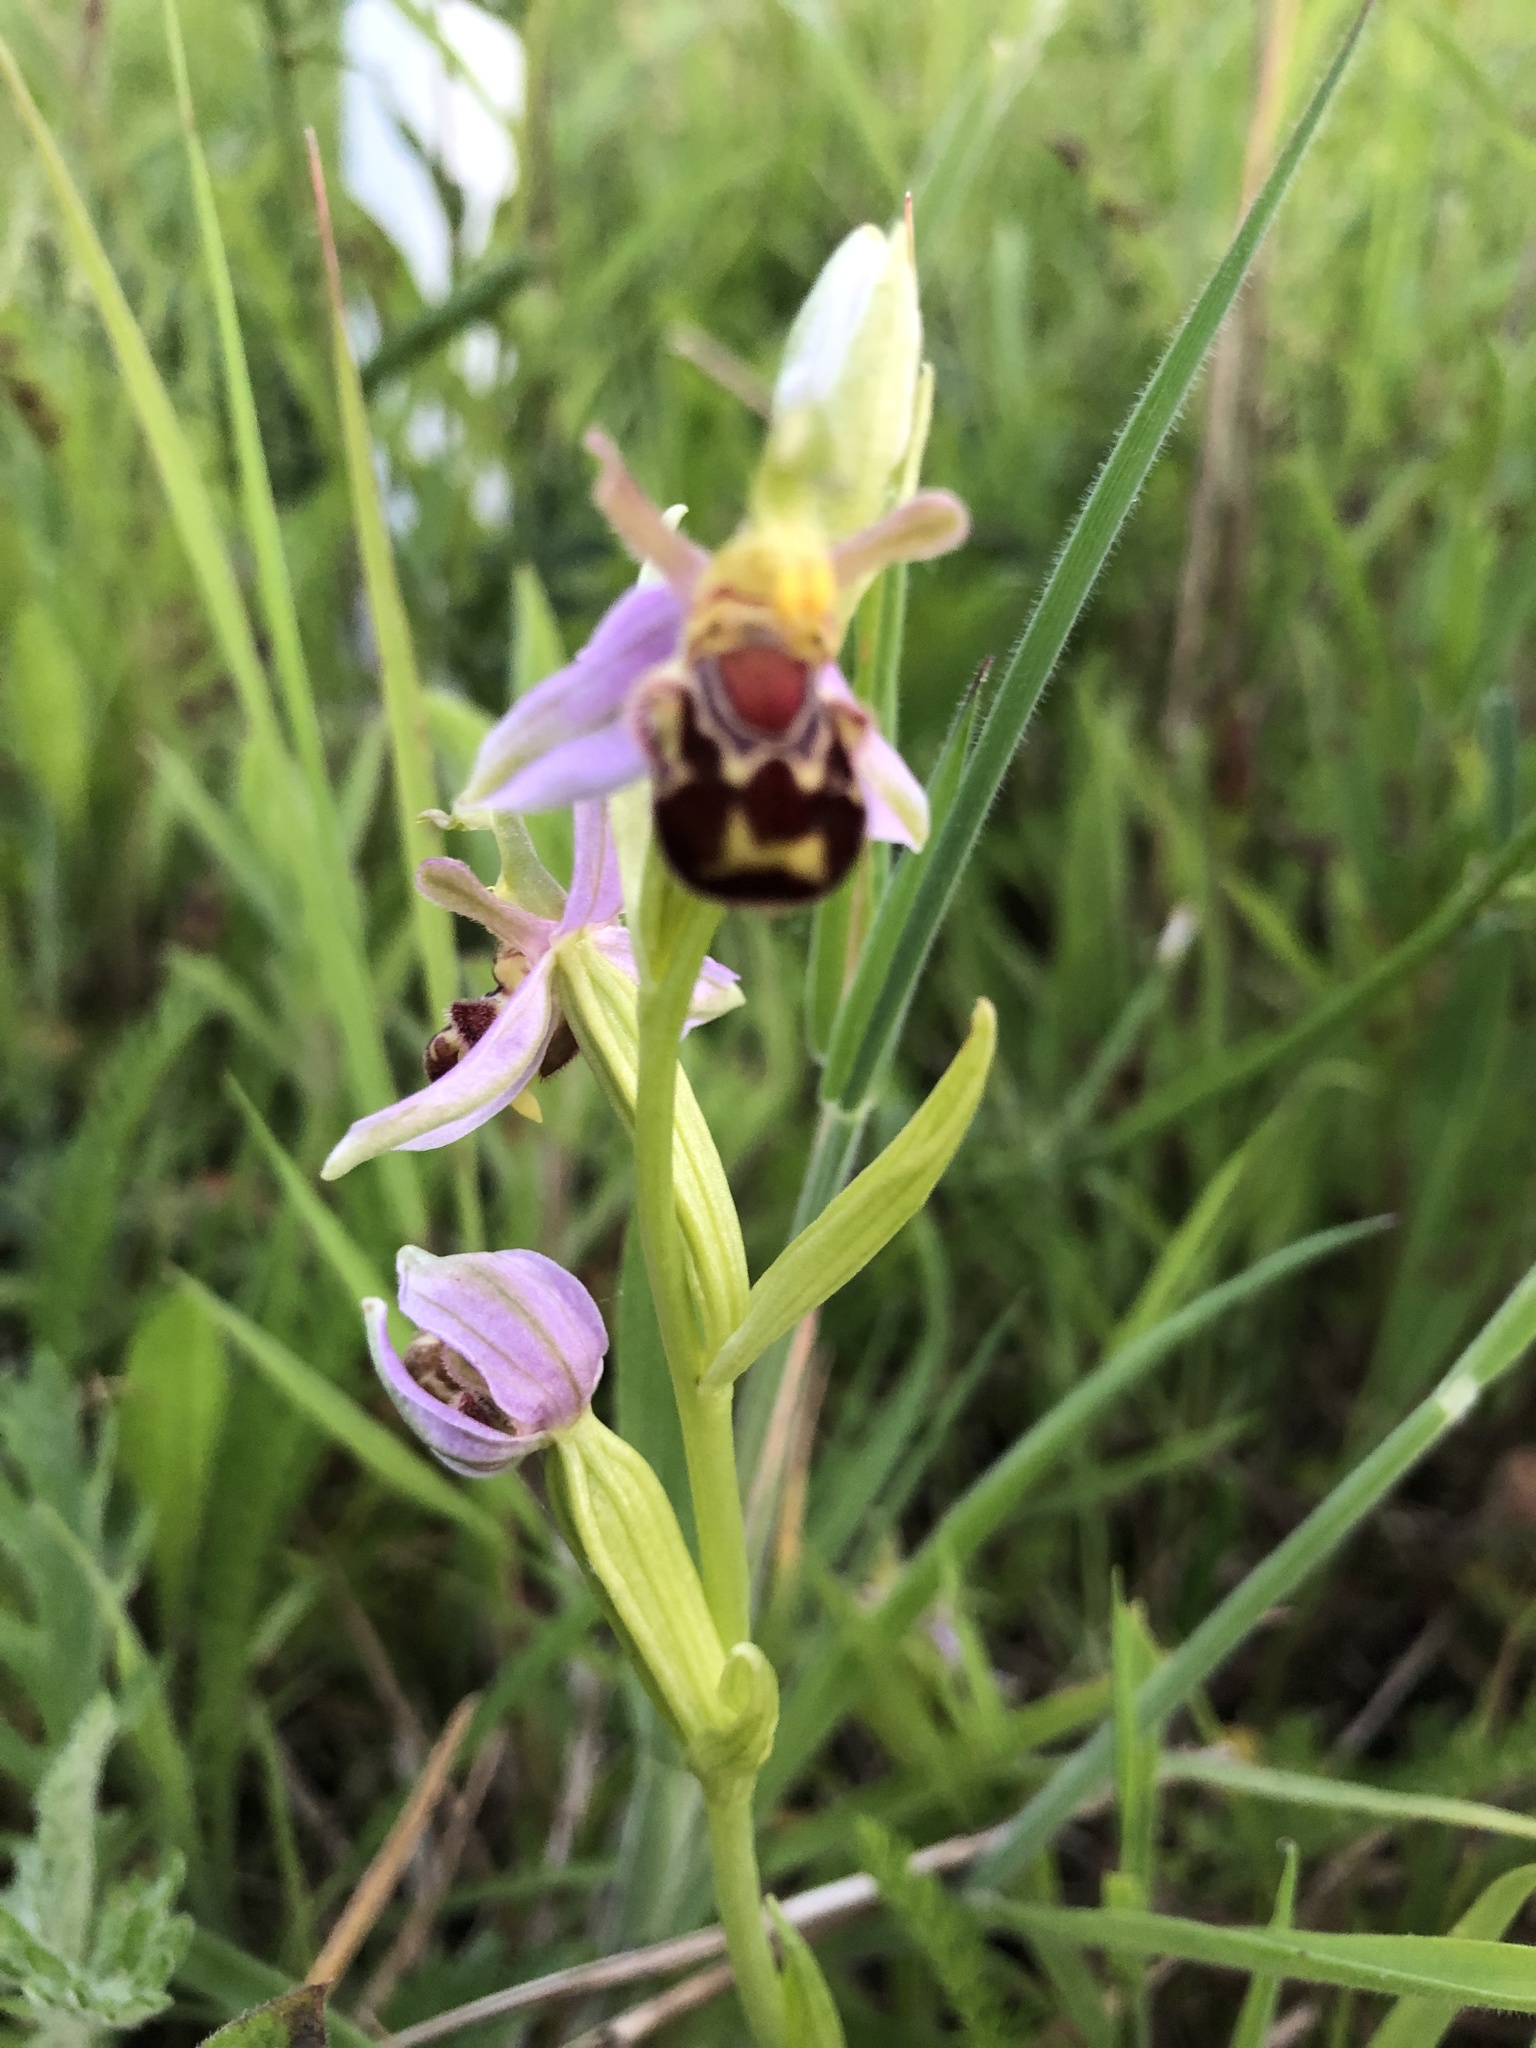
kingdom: Plantae
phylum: Tracheophyta
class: Liliopsida
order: Asparagales
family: Orchidaceae
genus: Ophrys
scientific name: Ophrys apifera
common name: Bee orchid
